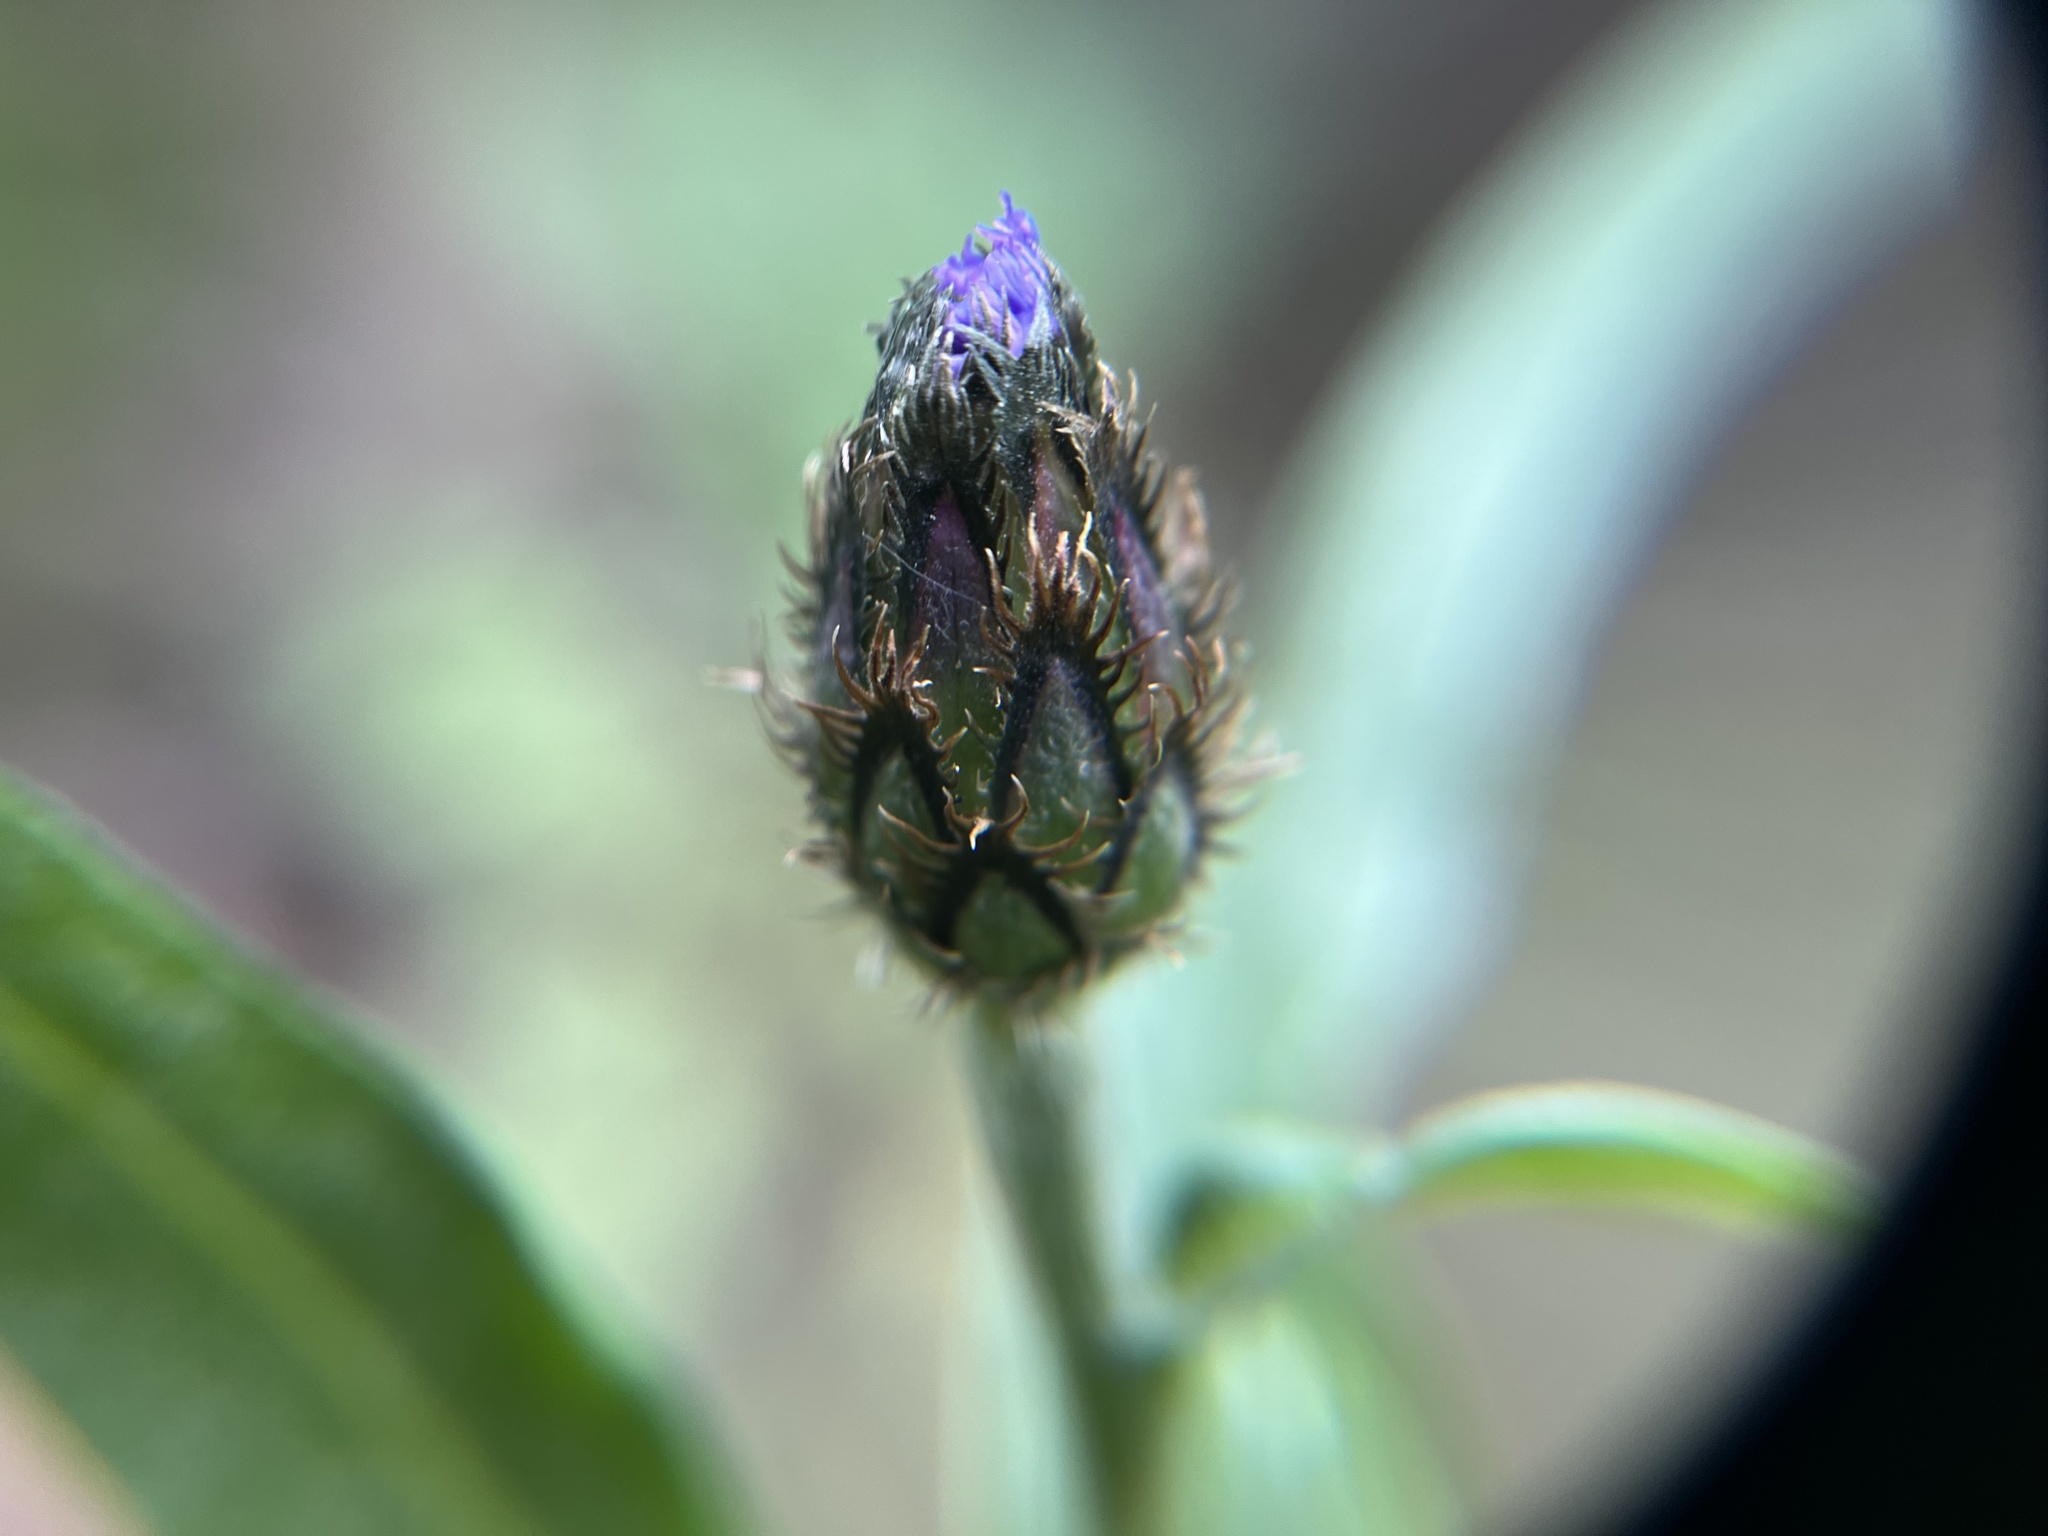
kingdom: Plantae
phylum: Tracheophyta
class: Magnoliopsida
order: Asterales
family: Asteraceae
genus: Centaurea
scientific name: Centaurea triumfettii
